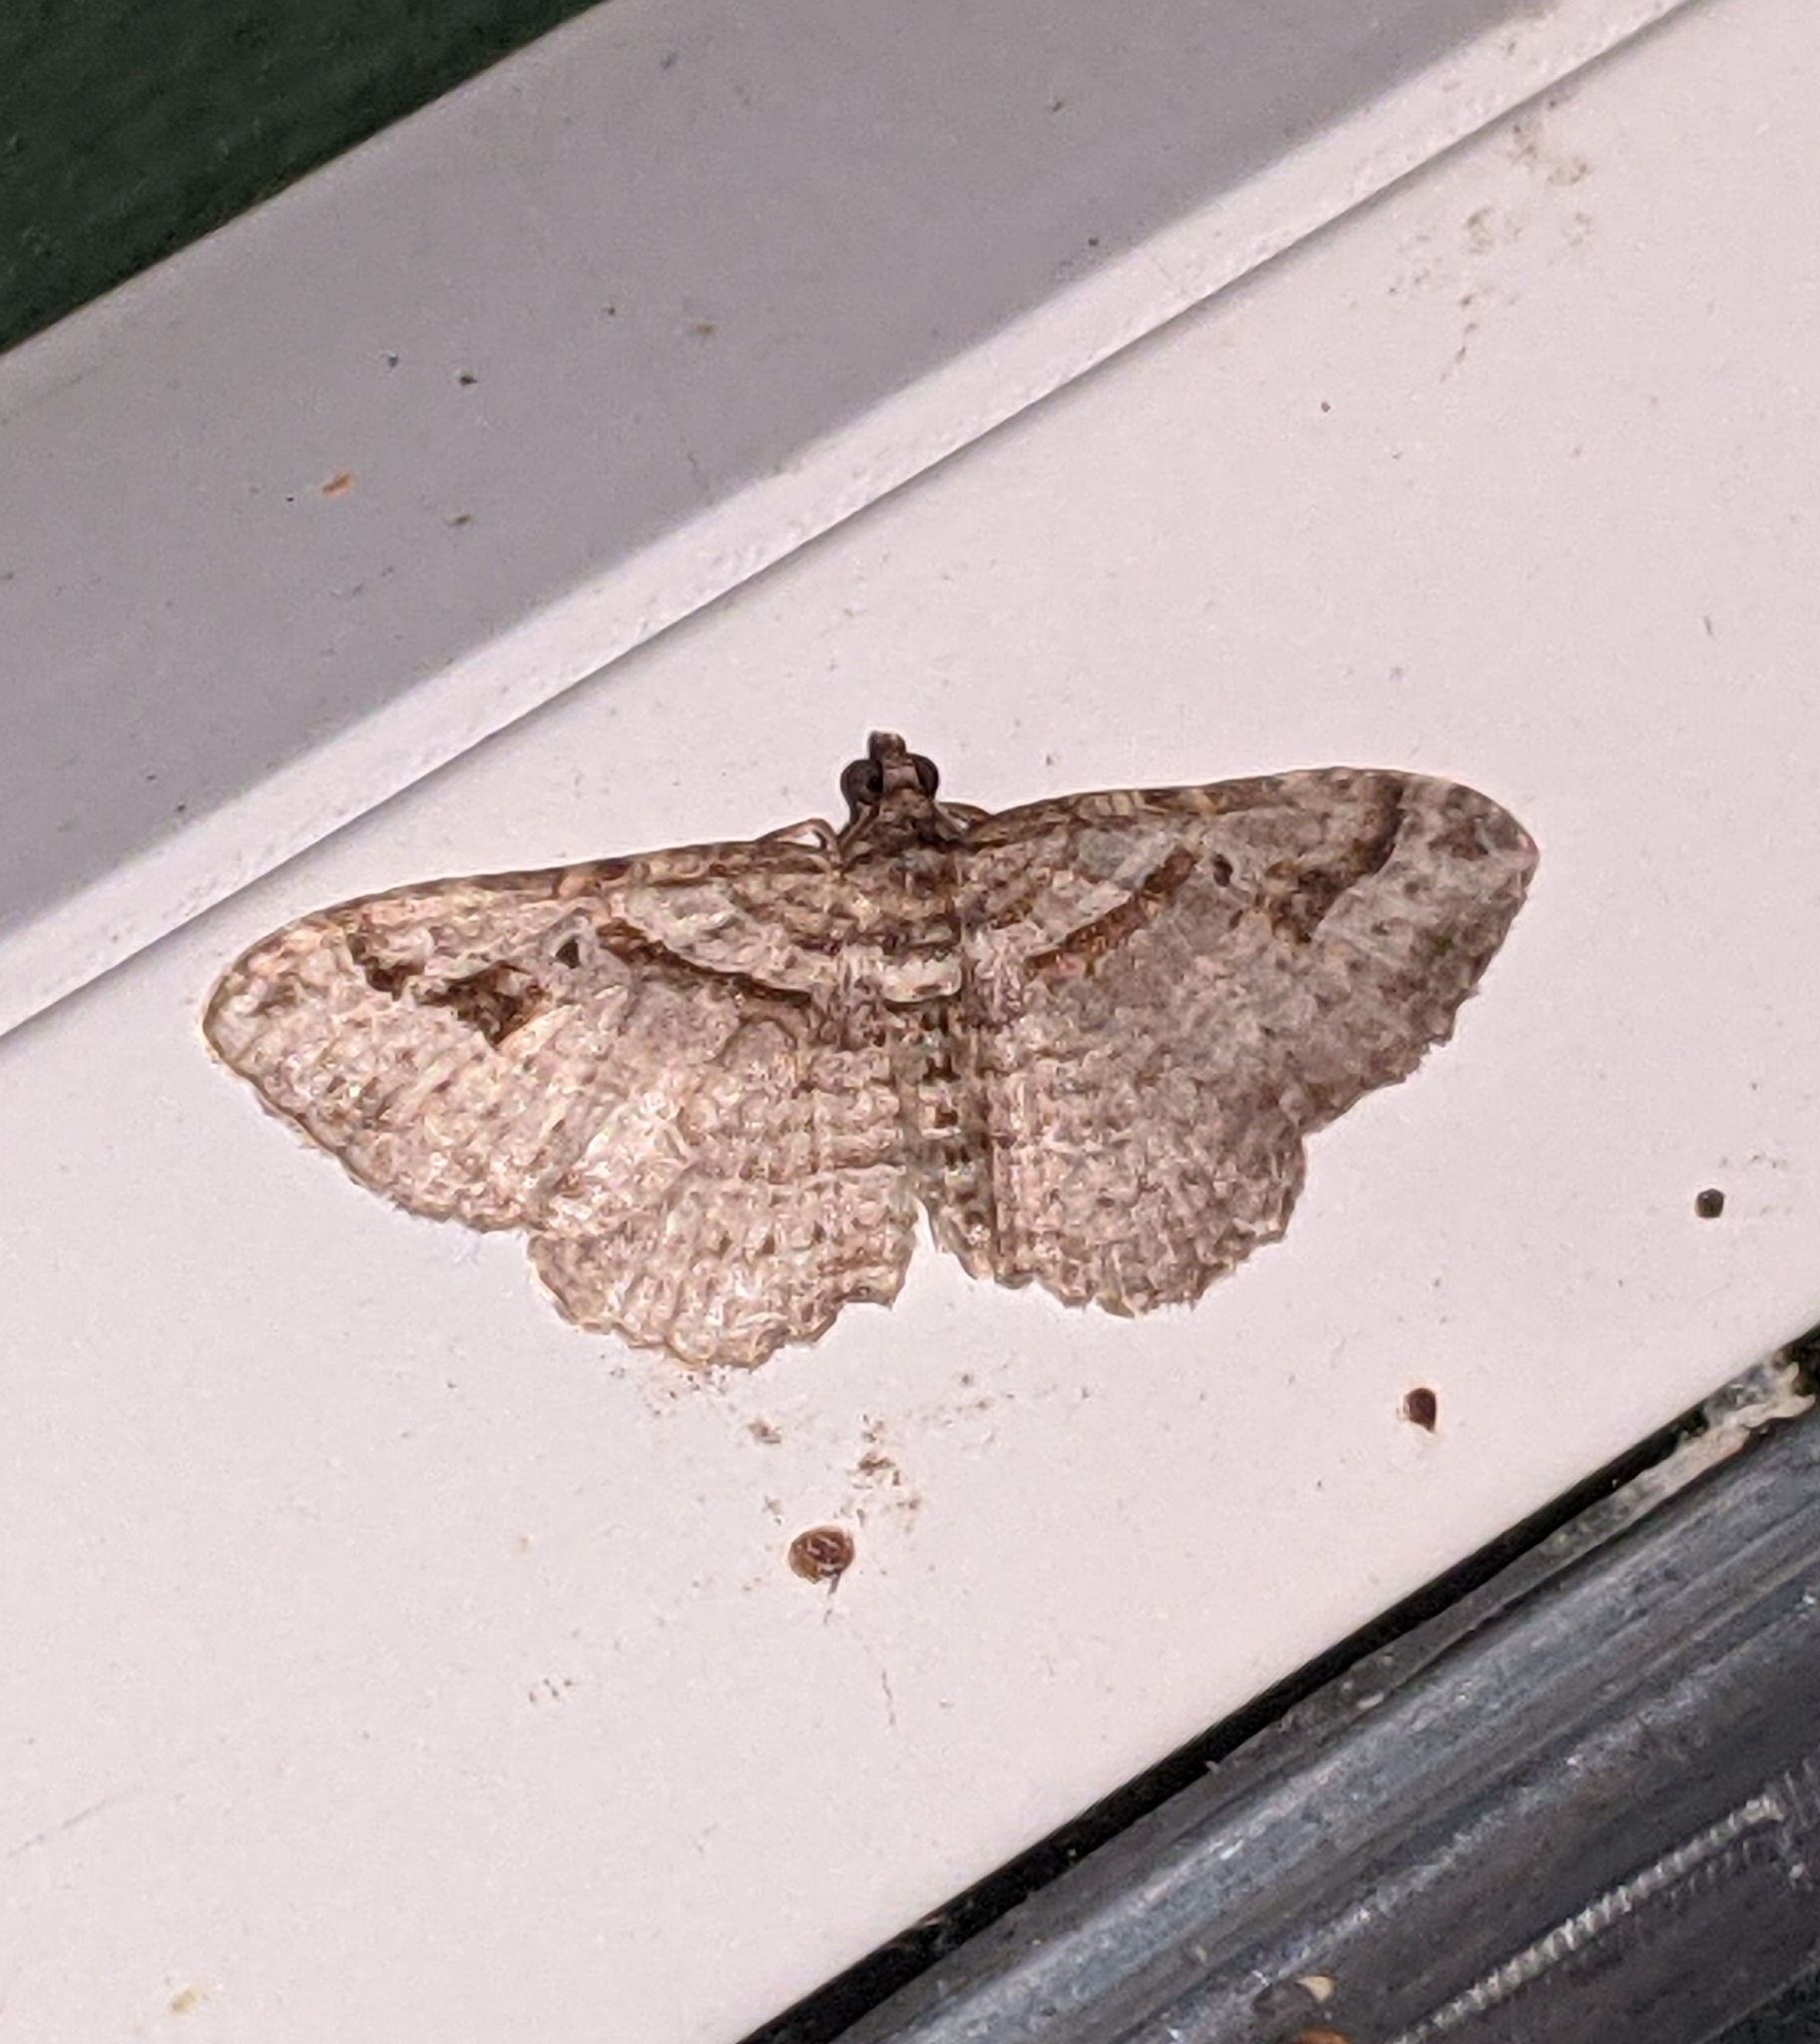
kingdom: Animalia
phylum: Arthropoda
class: Insecta
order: Lepidoptera
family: Geometridae
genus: Costaconvexa
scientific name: Costaconvexa centrostrigaria
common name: Bent-line carpet
